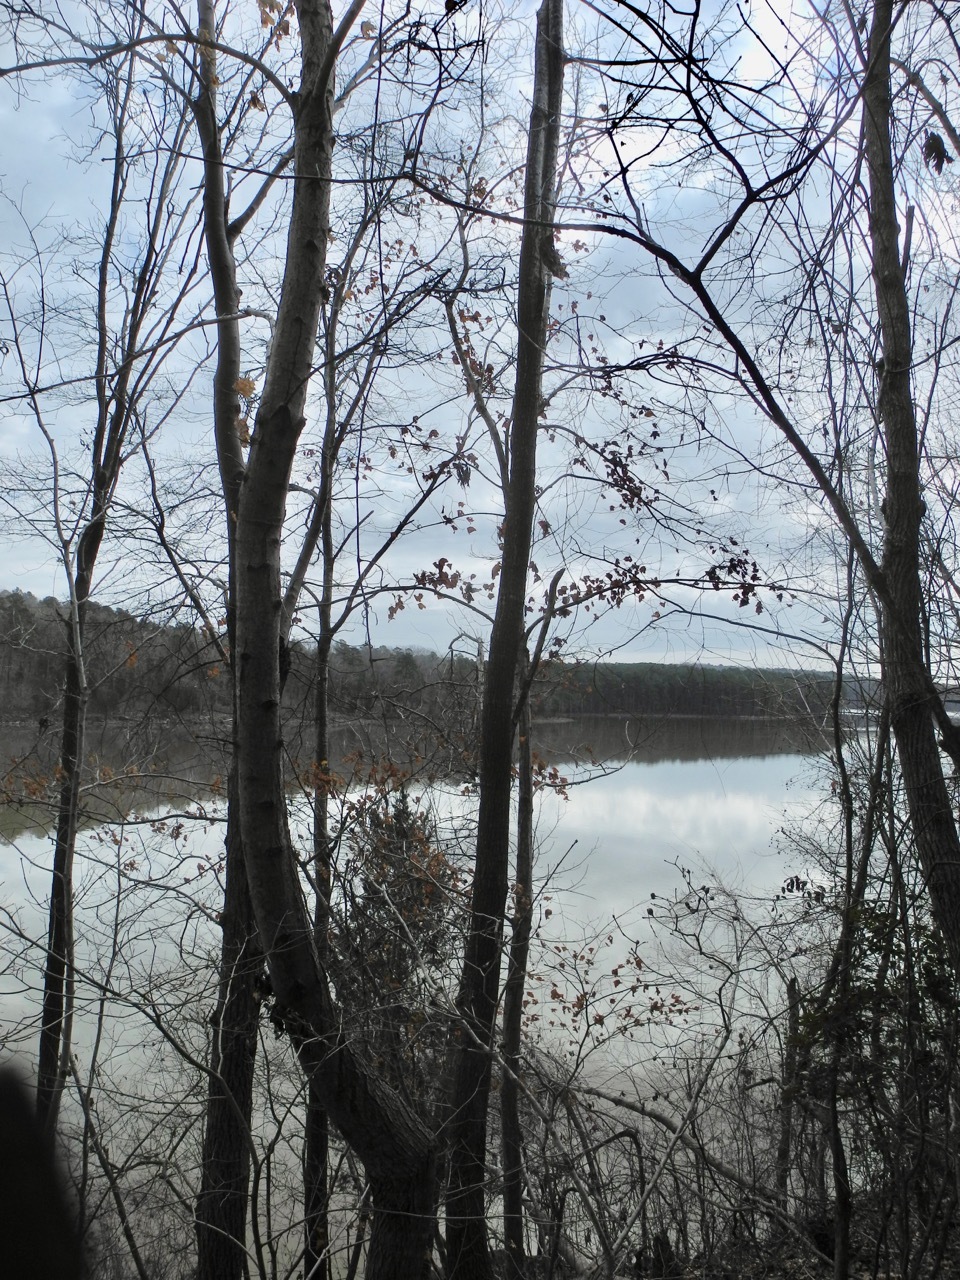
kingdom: Plantae
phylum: Tracheophyta
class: Magnoliopsida
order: Sapindales
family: Sapindaceae
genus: Acer
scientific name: Acer floridanum
